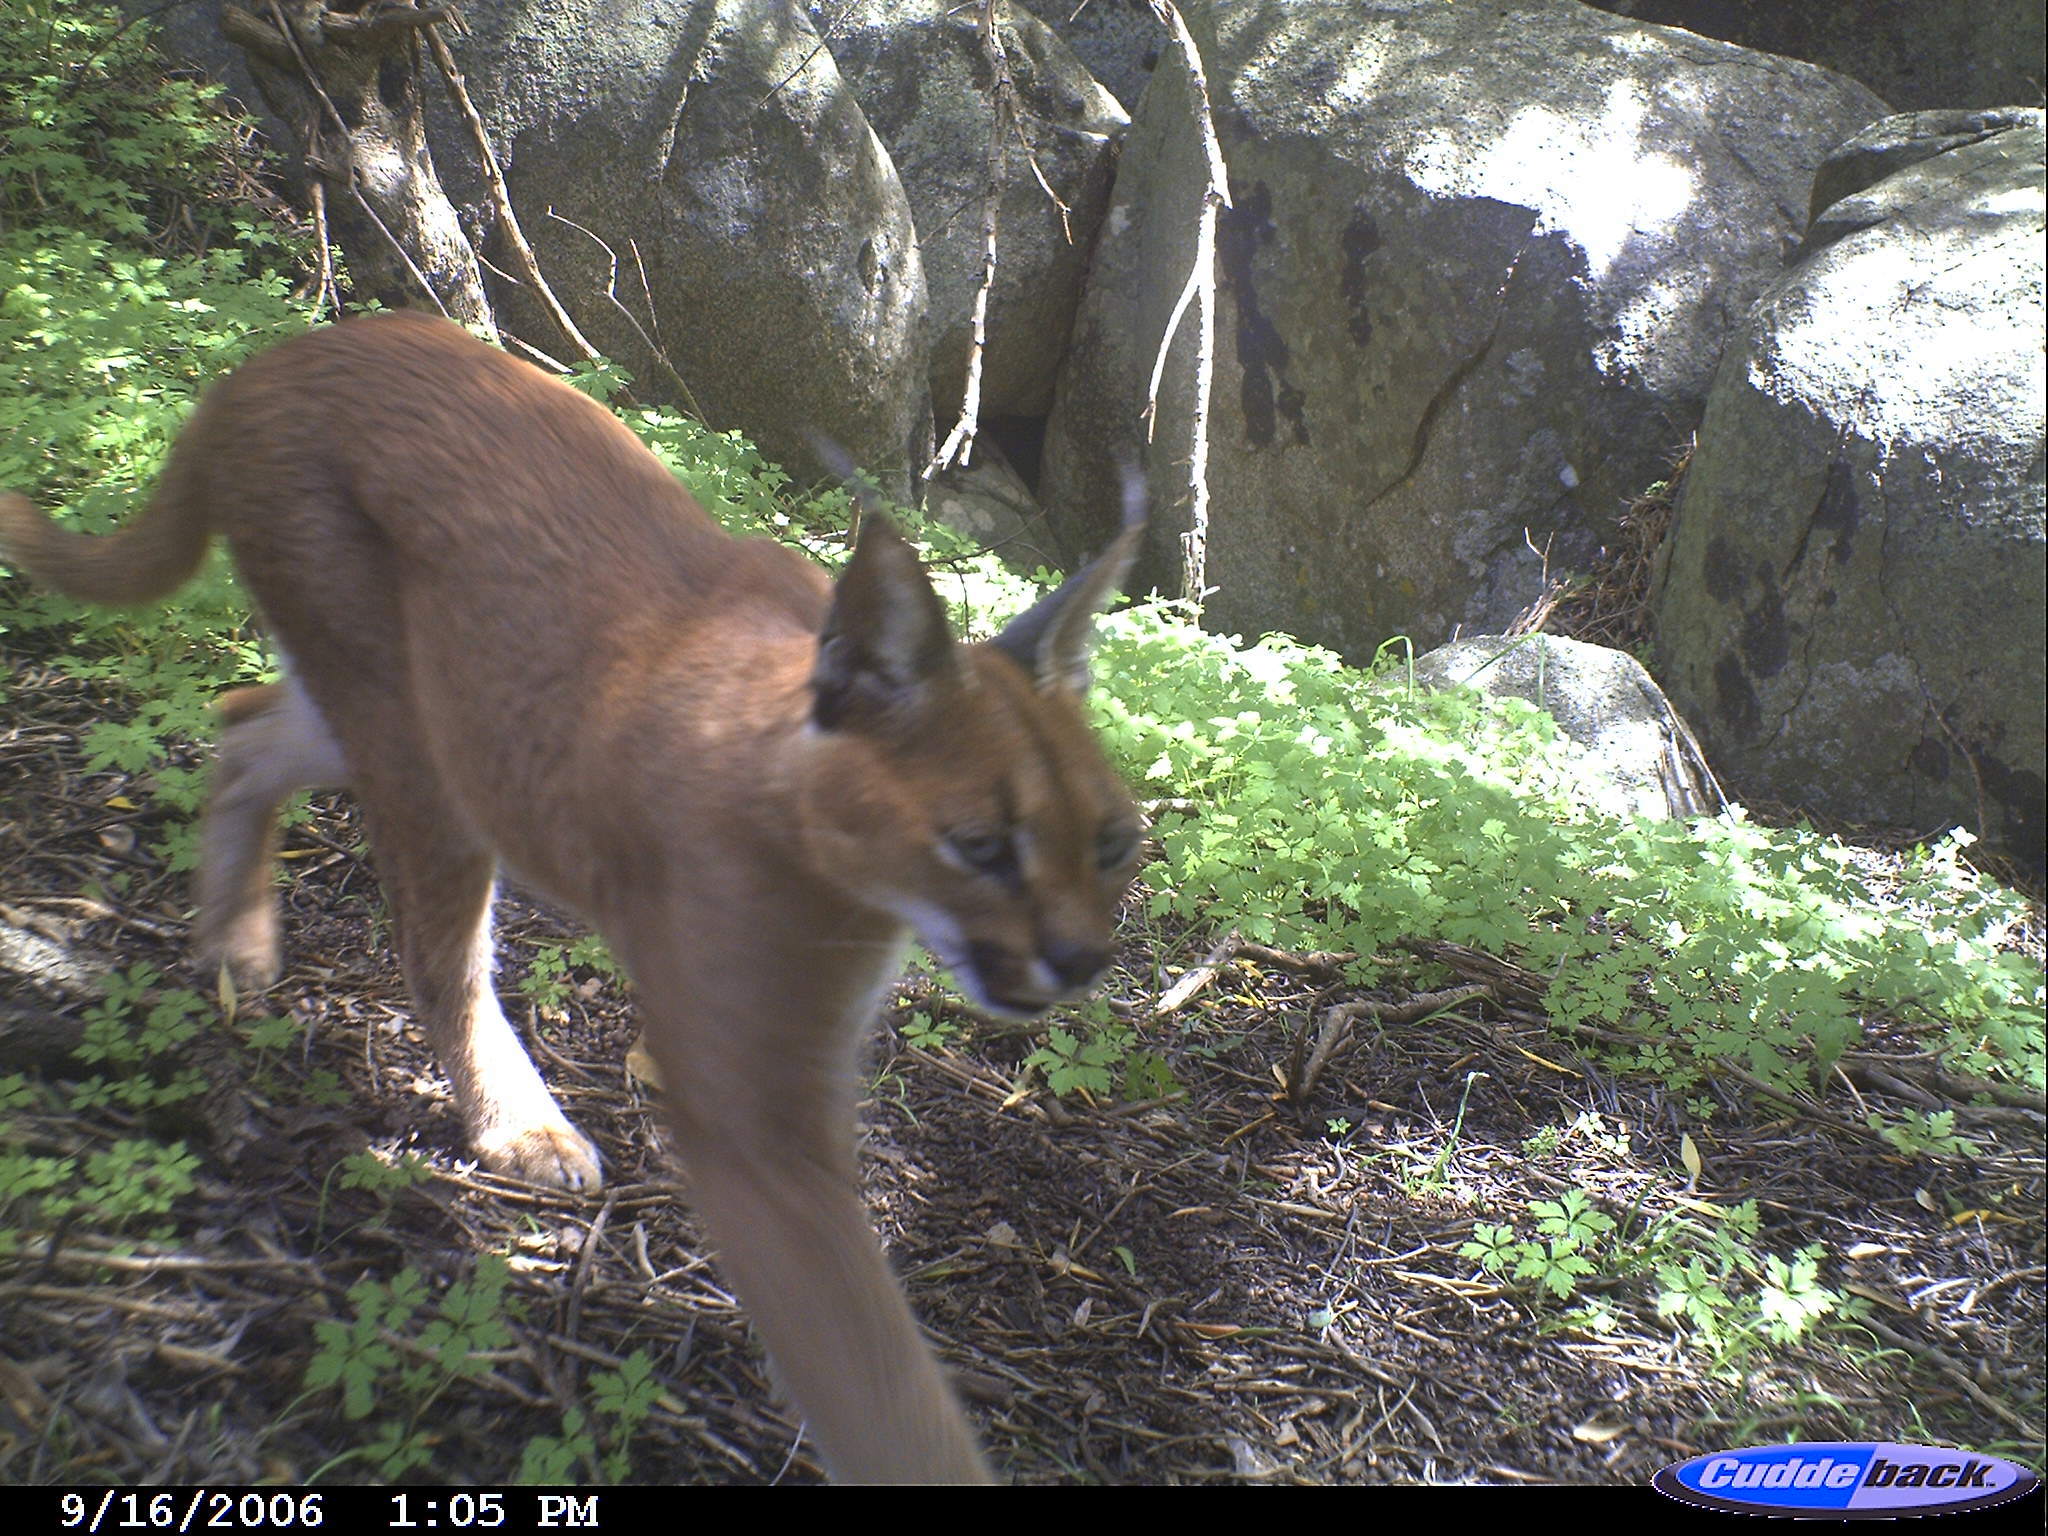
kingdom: Animalia
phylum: Chordata
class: Mammalia
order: Carnivora
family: Felidae
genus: Caracal
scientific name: Caracal caracal
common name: Caracal
